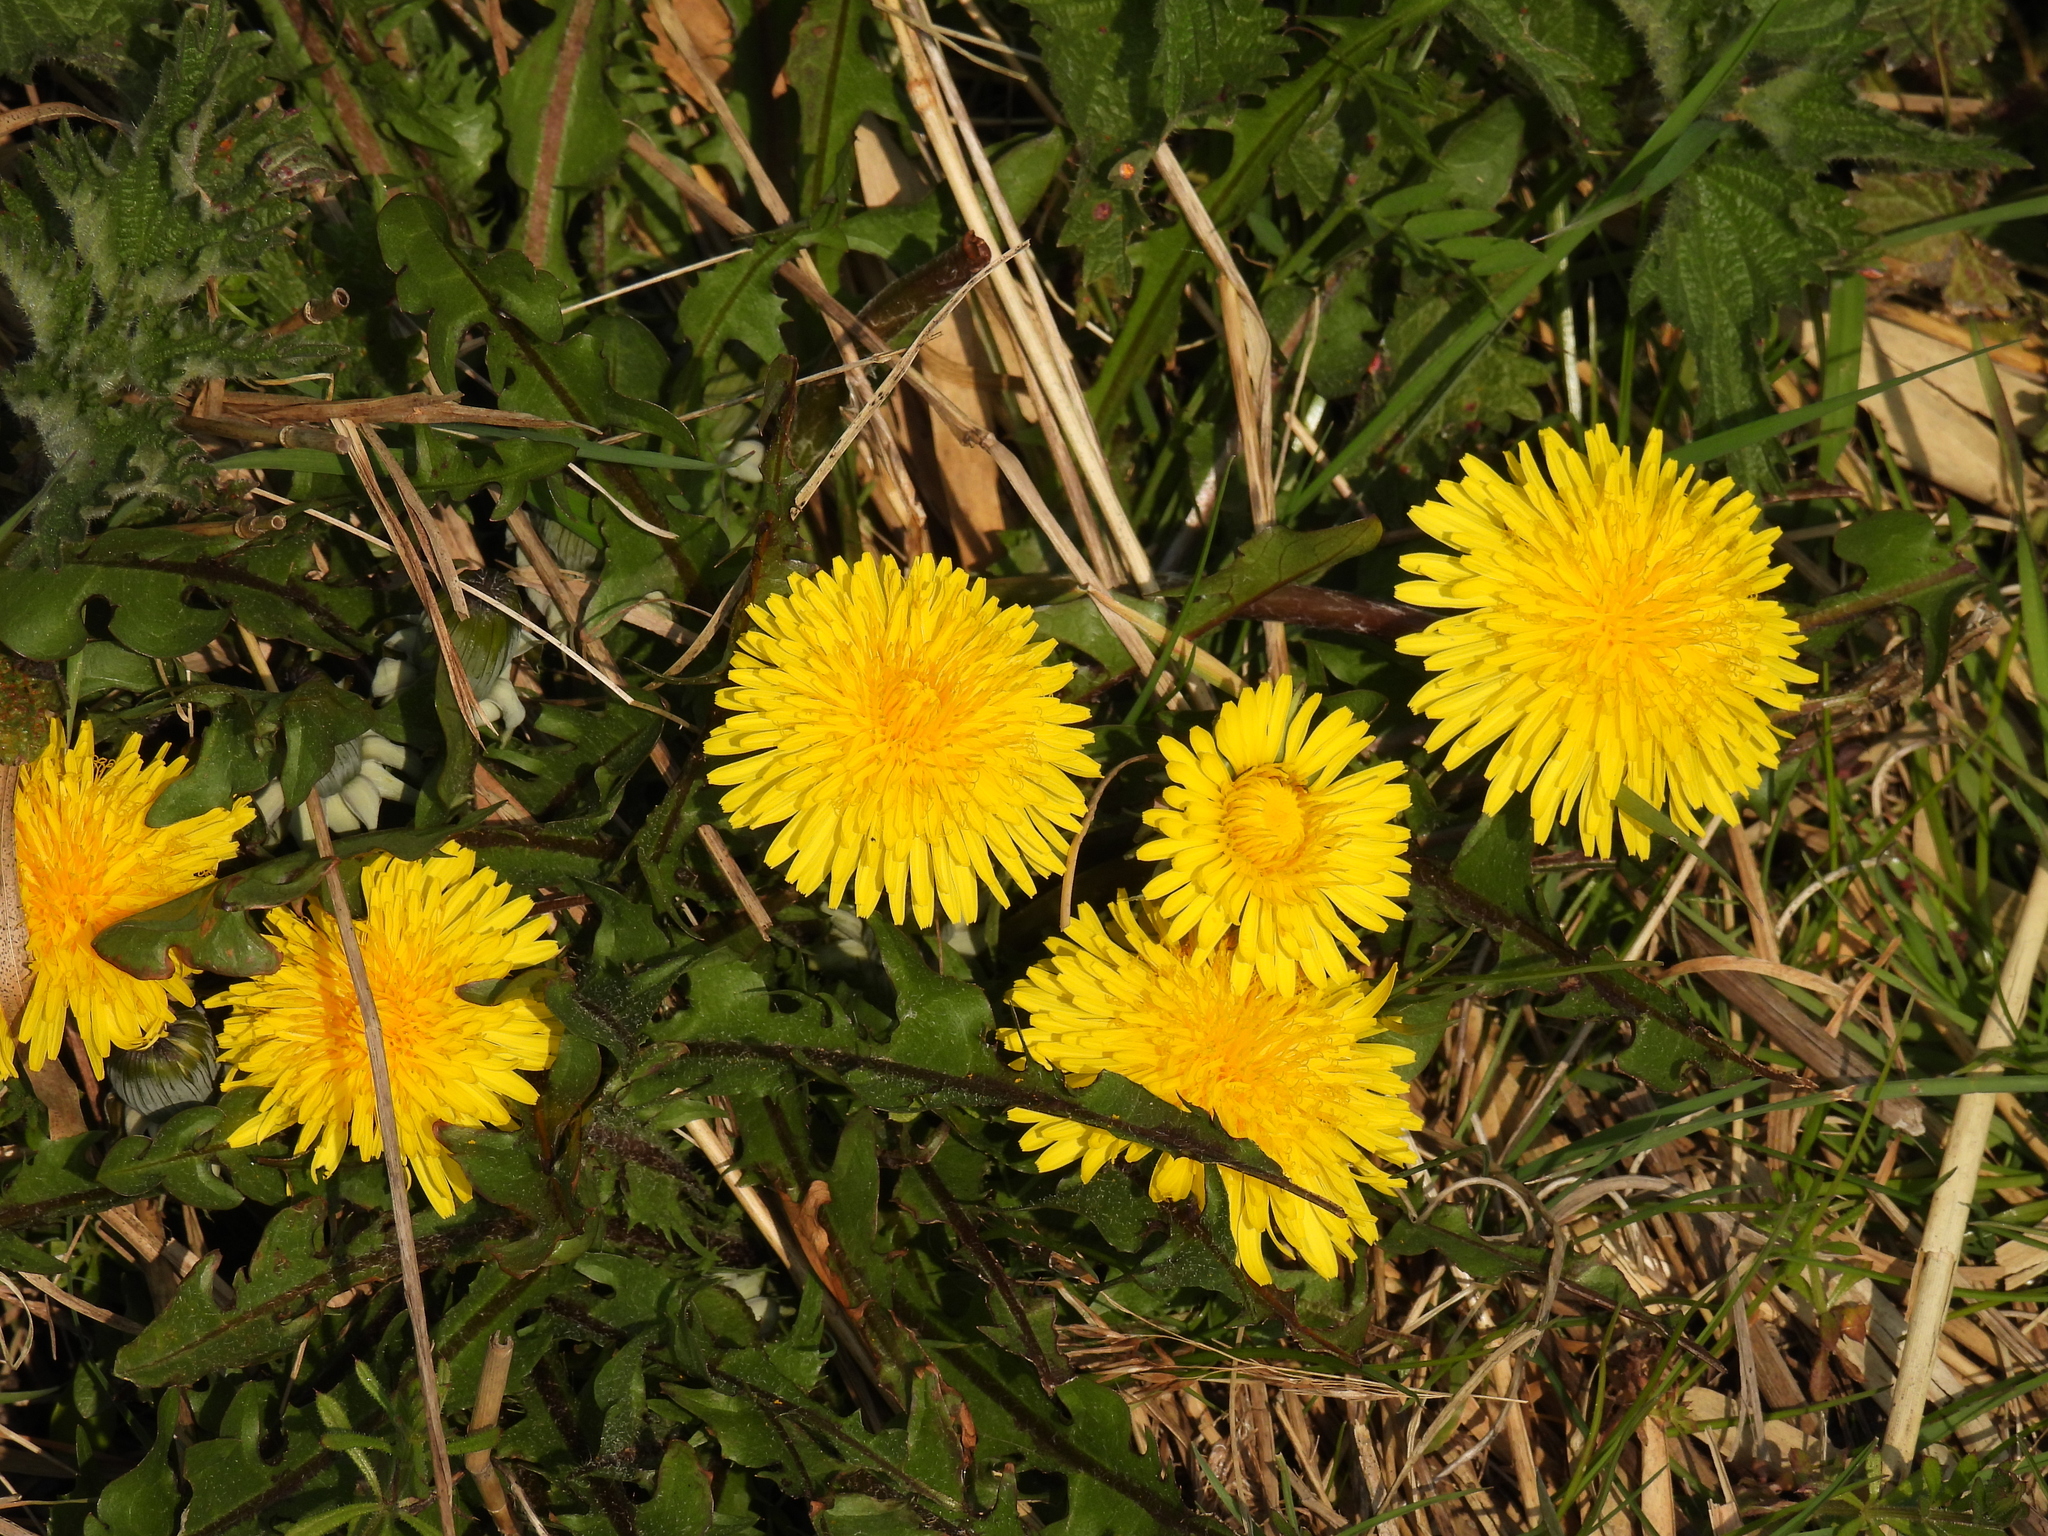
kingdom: Plantae
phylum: Tracheophyta
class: Magnoliopsida
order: Asterales
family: Asteraceae
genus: Taraxacum
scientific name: Taraxacum officinale
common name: Common dandelion
